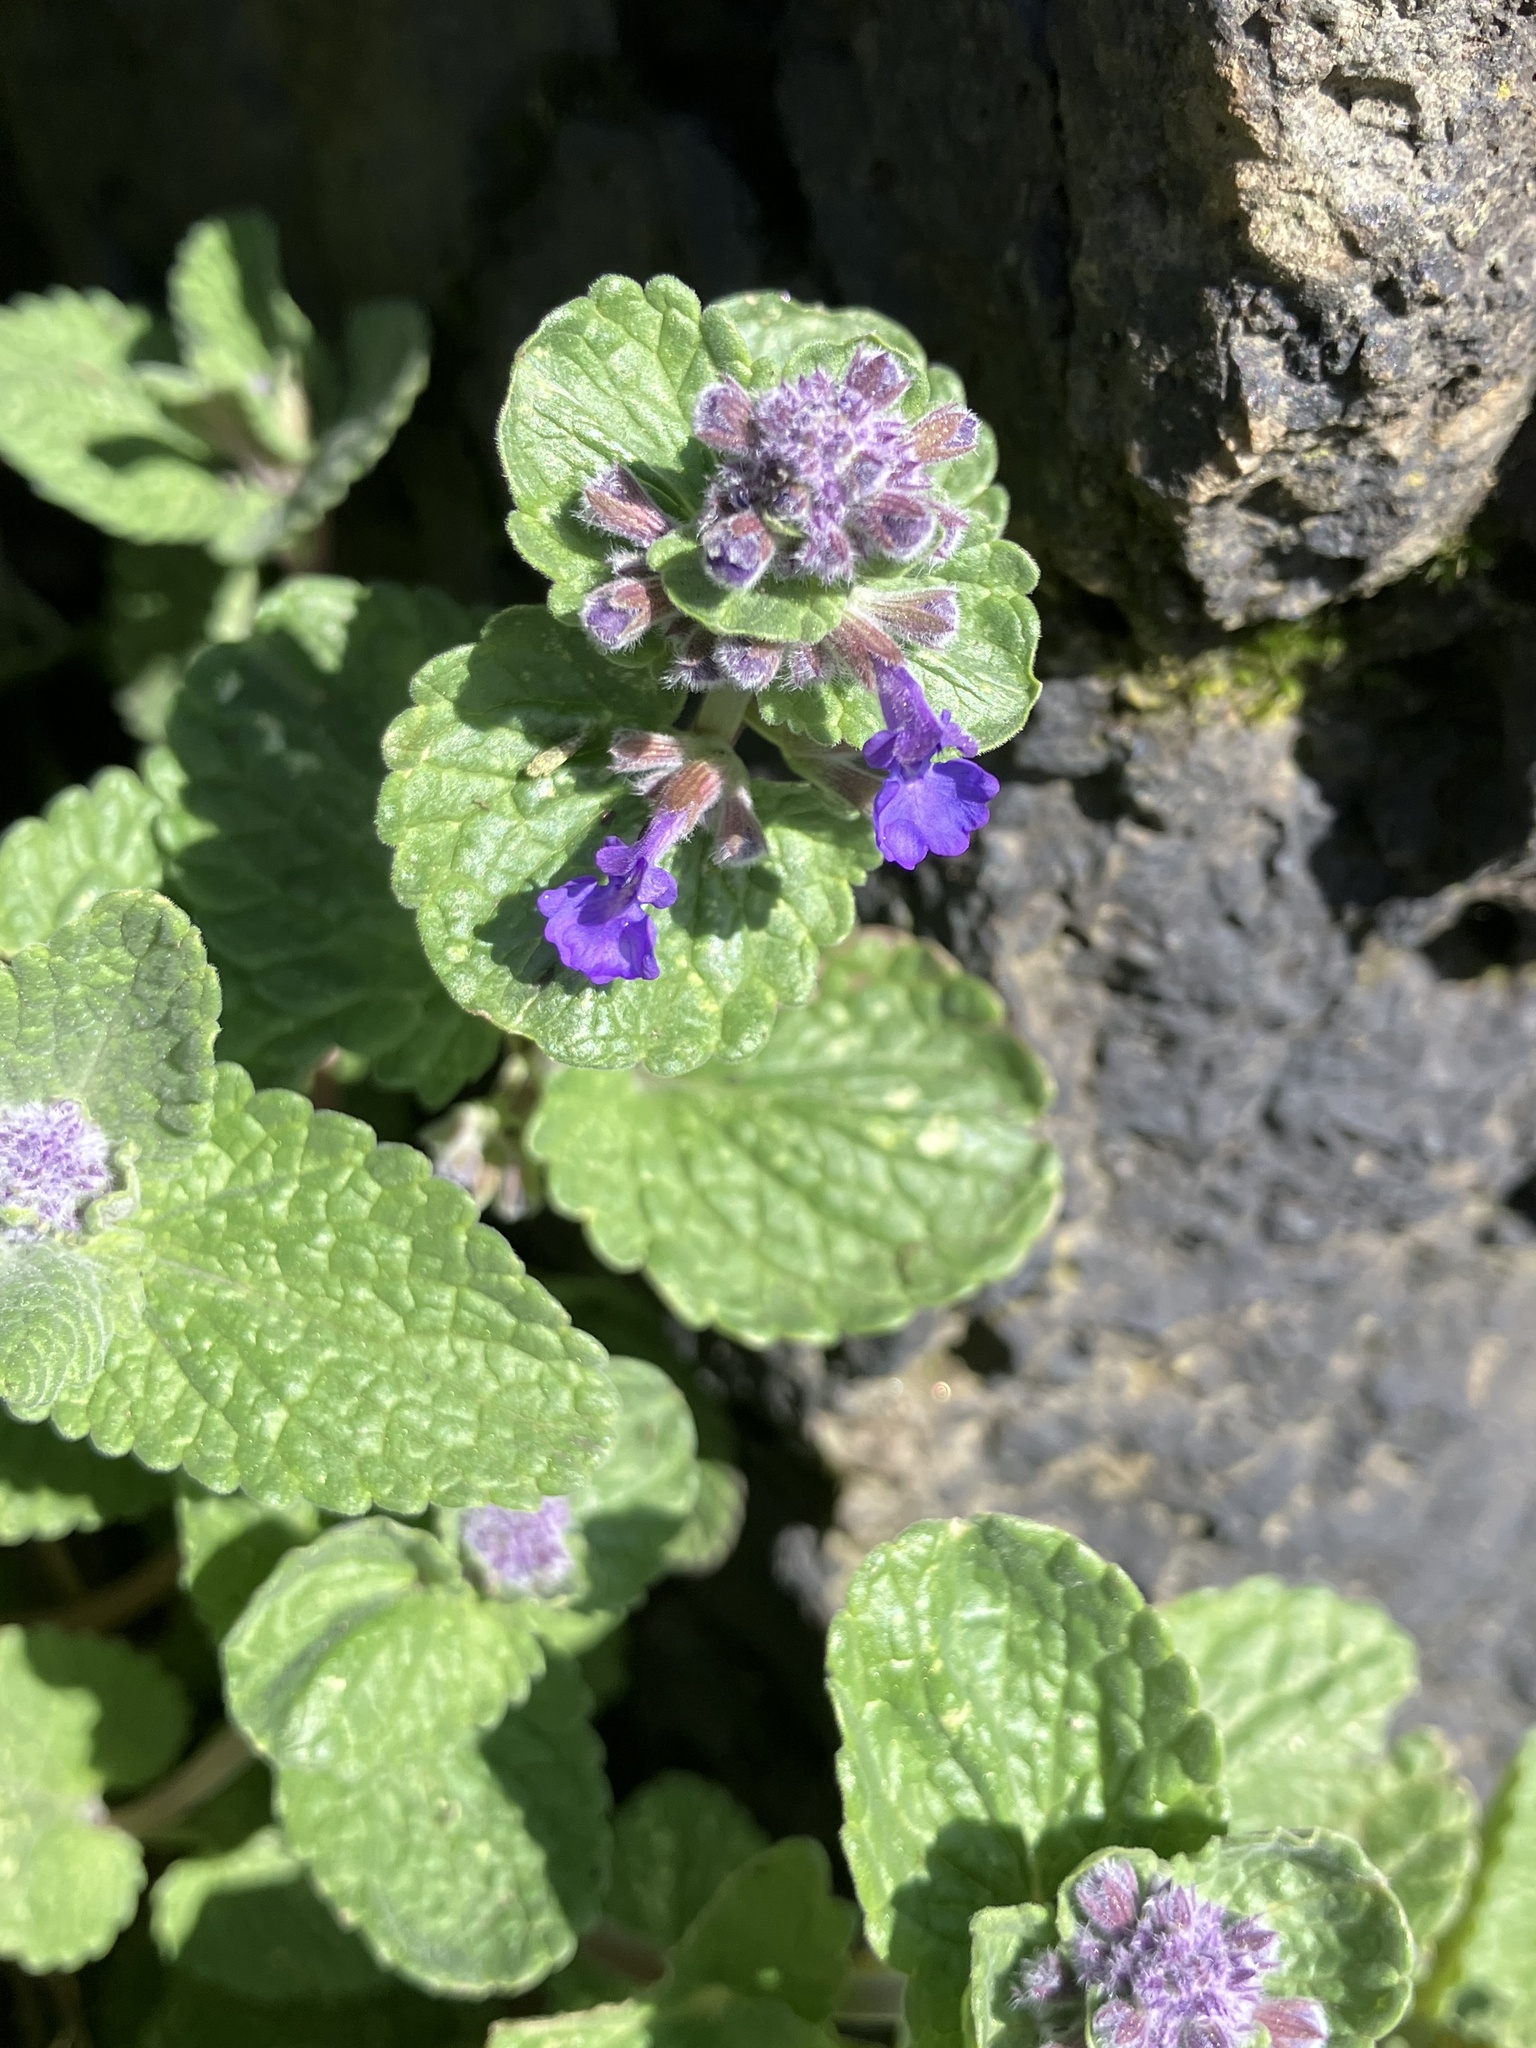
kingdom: Plantae
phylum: Tracheophyta
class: Magnoliopsida
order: Lamiales
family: Lamiaceae
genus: Glechoma
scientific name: Glechoma hederacea
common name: Ground ivy
